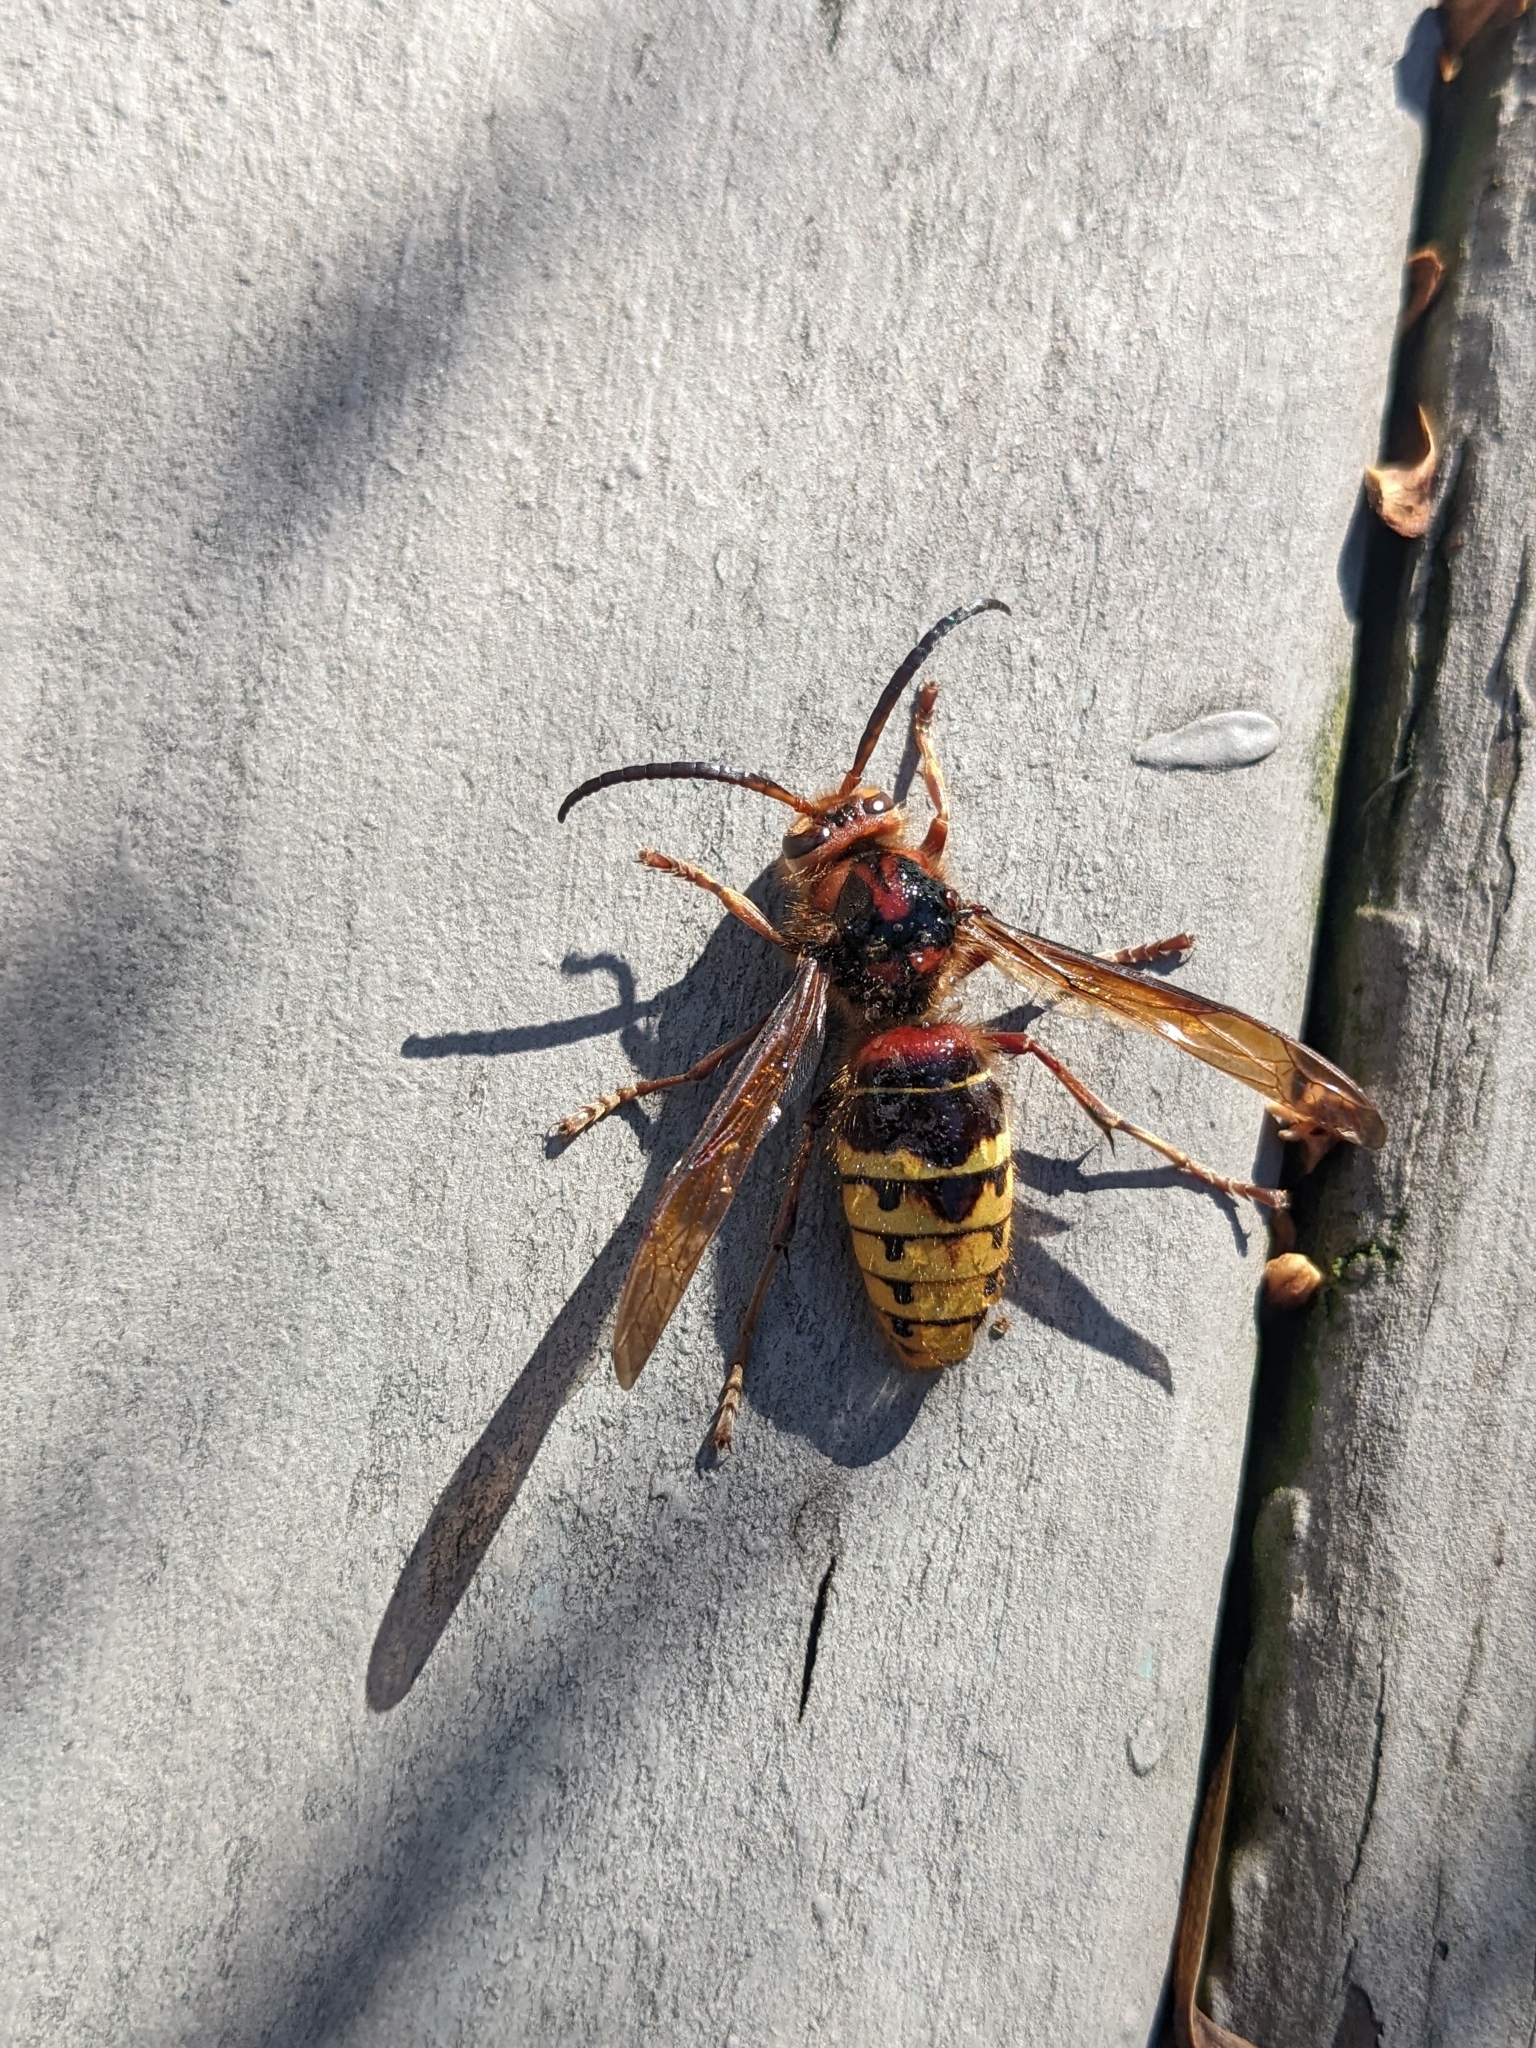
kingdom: Animalia
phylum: Arthropoda
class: Insecta
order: Hymenoptera
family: Vespidae
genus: Vespa
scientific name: Vespa crabro
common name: Hornet
